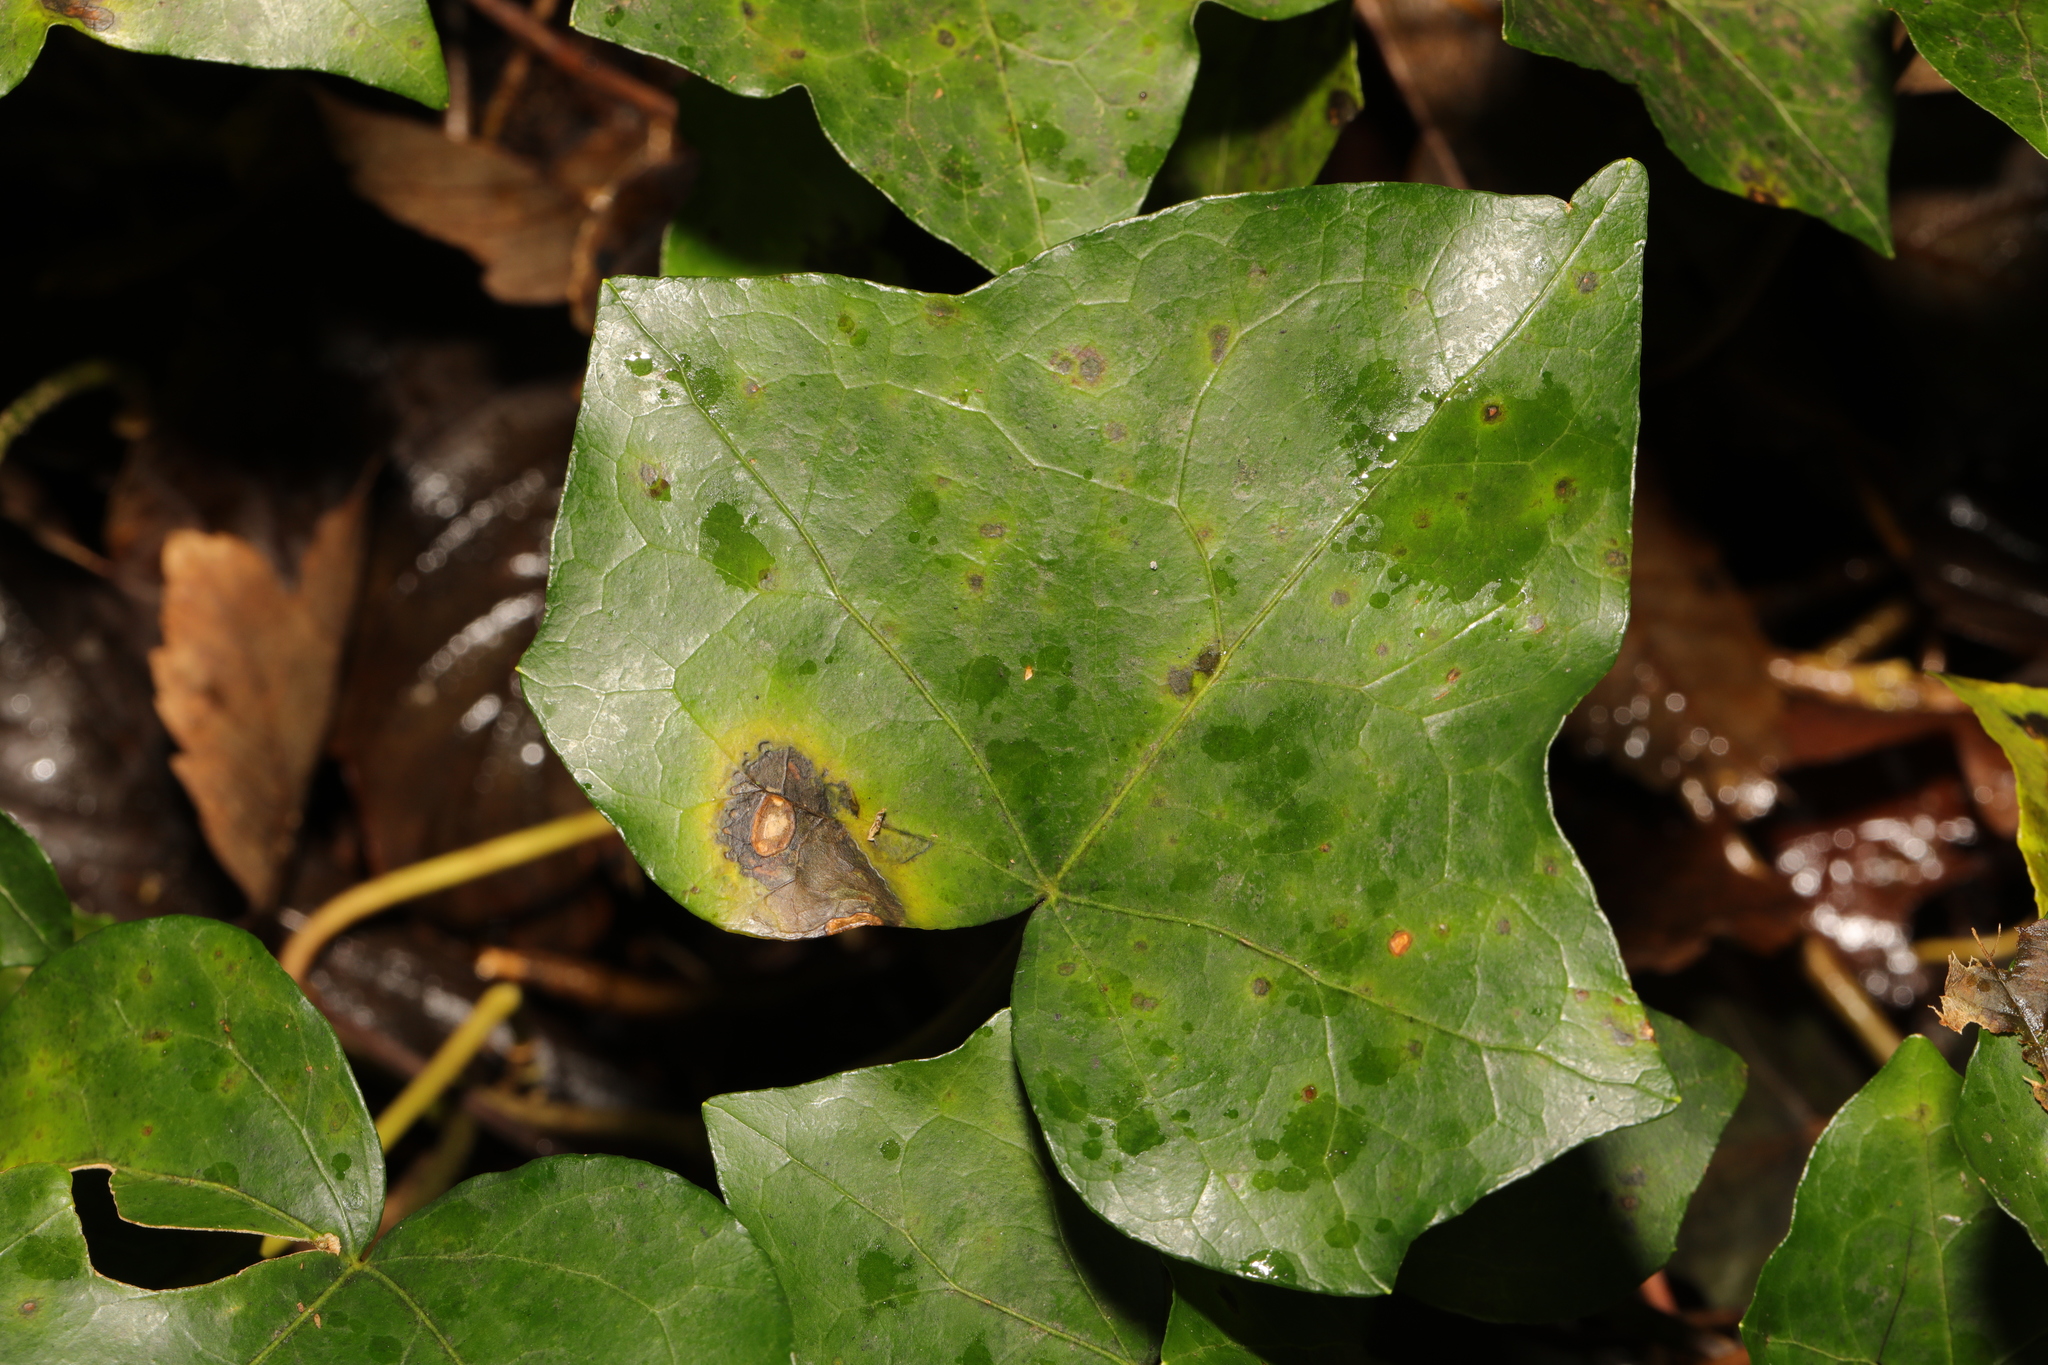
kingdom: Fungi
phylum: Ascomycota
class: Dothideomycetes
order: Pleosporales
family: Didymellaceae
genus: Boeremia
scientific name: Boeremia hedericola
